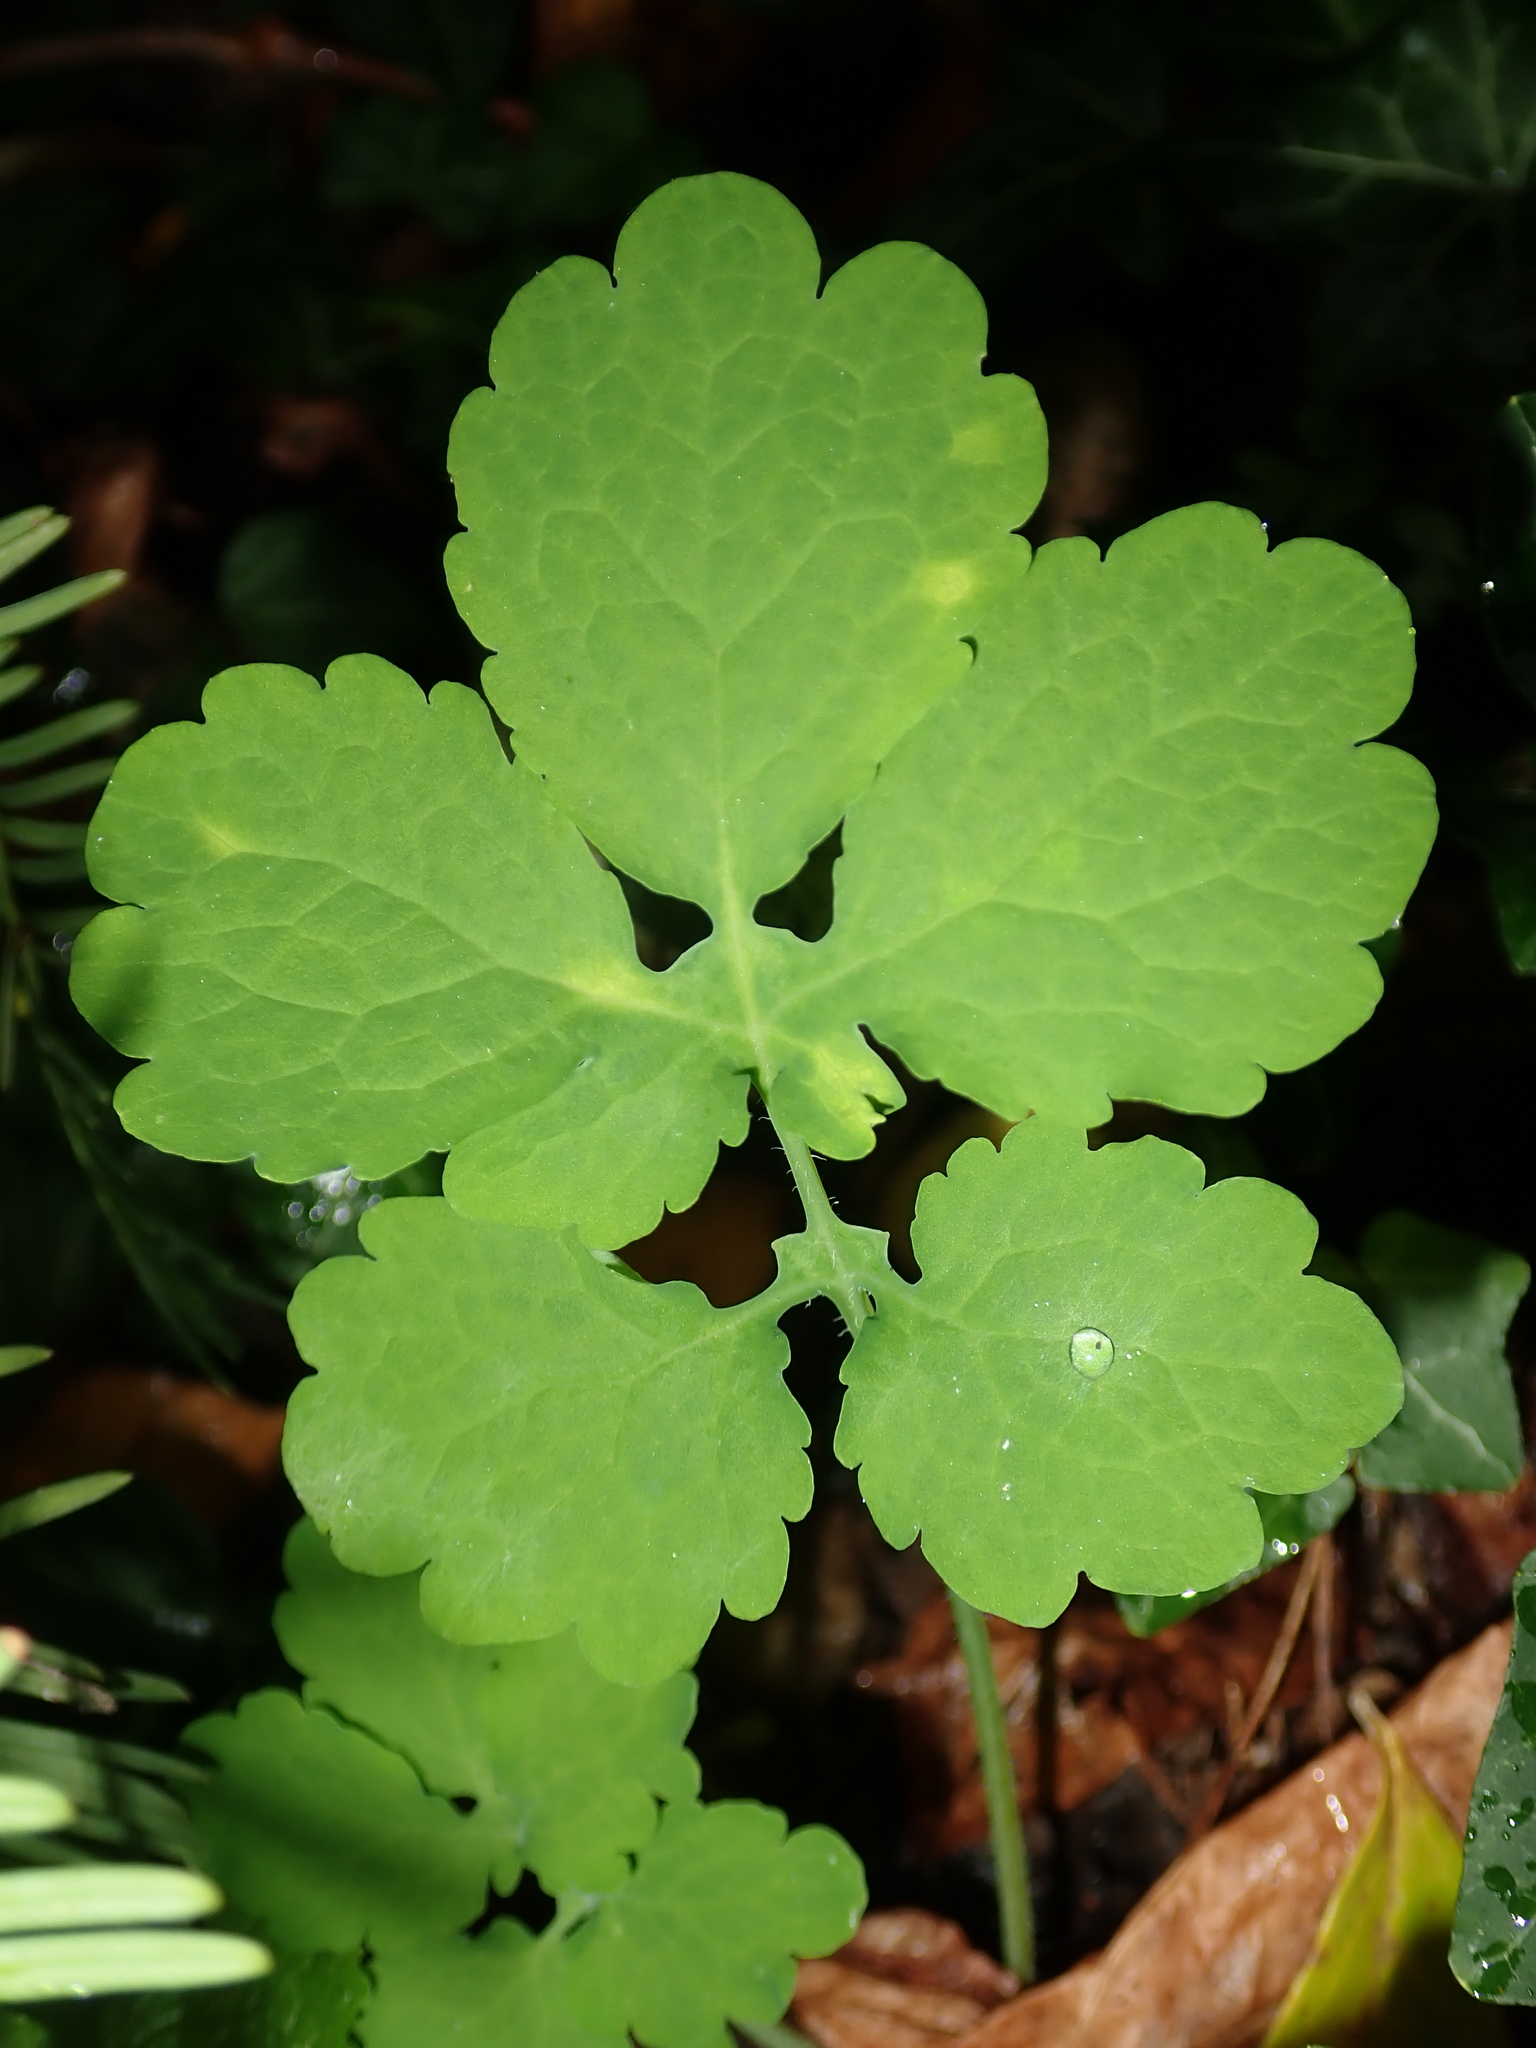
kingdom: Plantae
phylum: Tracheophyta
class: Magnoliopsida
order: Ranunculales
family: Papaveraceae
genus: Chelidonium
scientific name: Chelidonium majus
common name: Greater celandine
